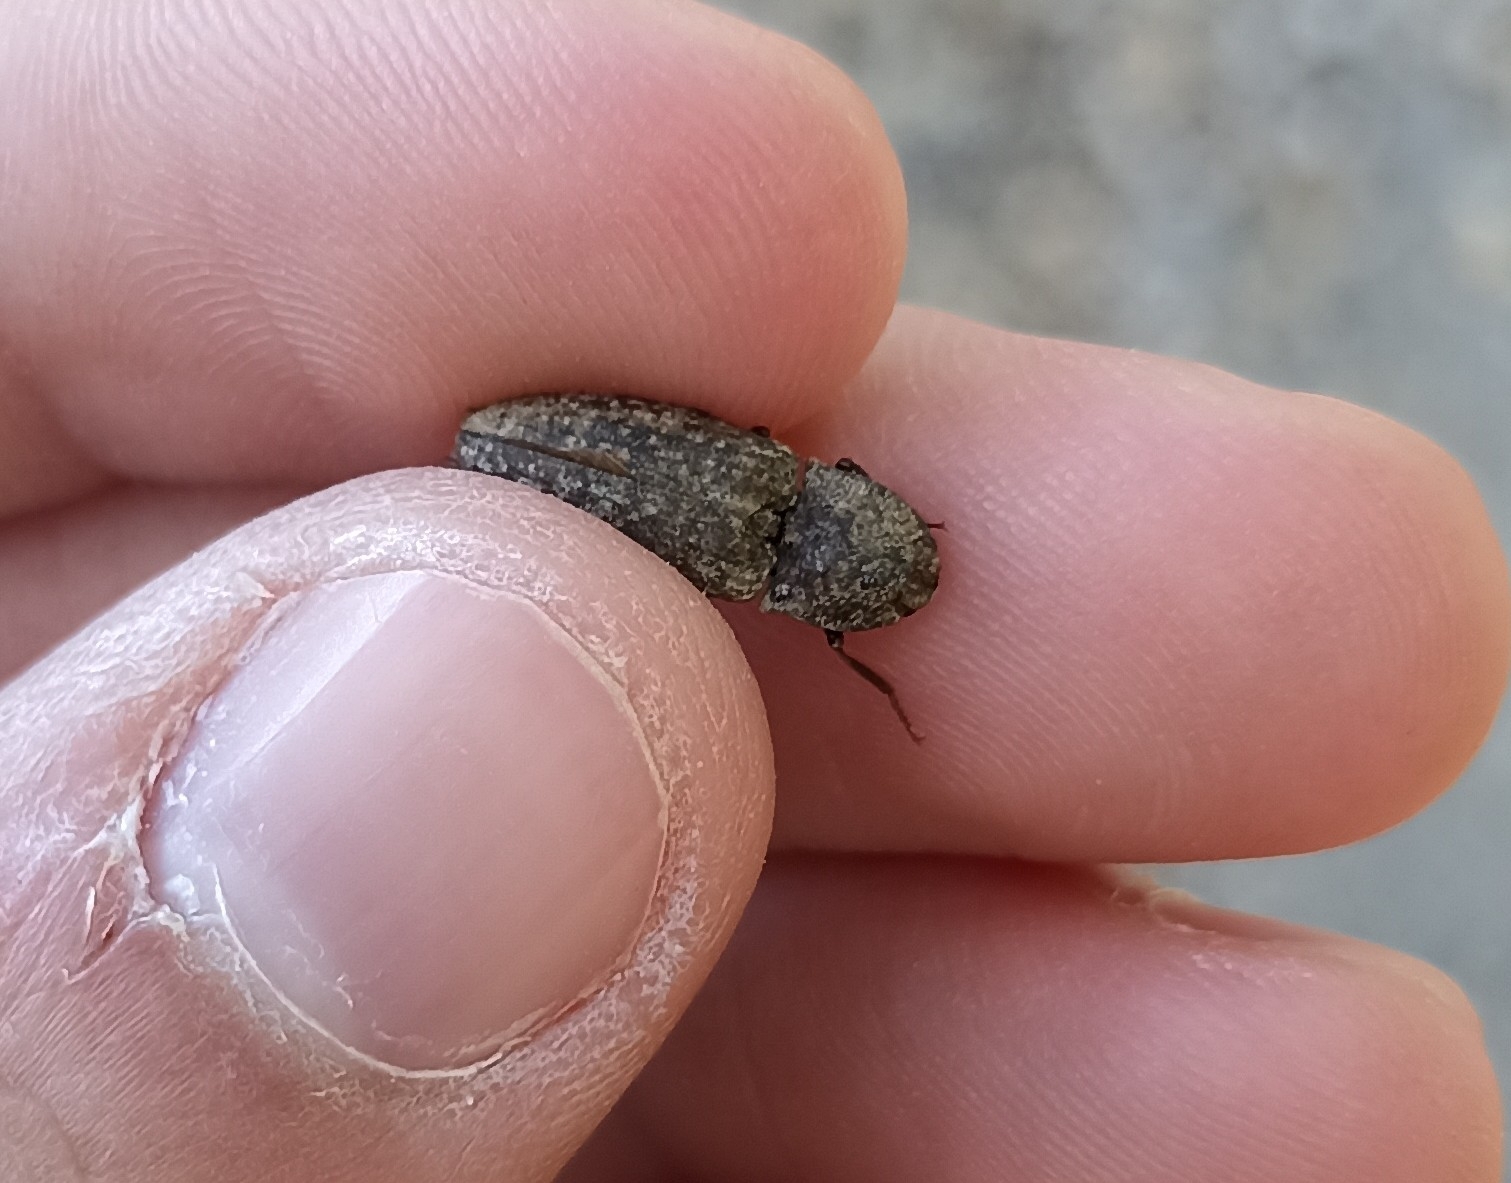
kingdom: Animalia
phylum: Arthropoda
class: Insecta
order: Coleoptera
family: Elateridae
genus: Agrypnus
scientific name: Agrypnus murinus
